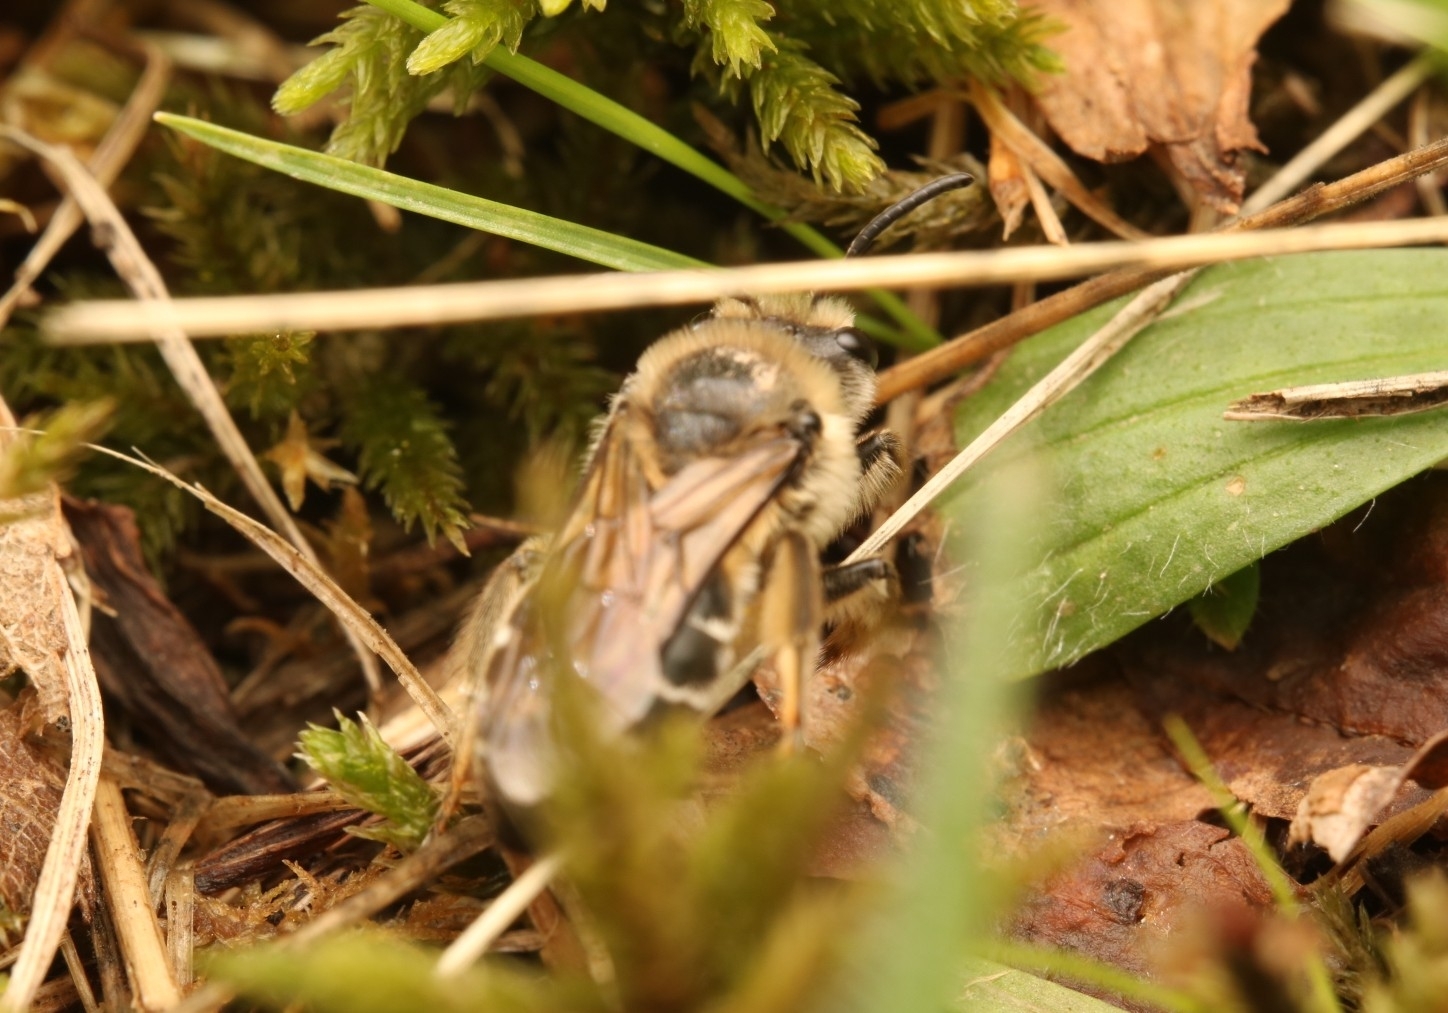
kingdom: Animalia
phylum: Arthropoda
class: Insecta
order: Hymenoptera
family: Colletidae
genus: Colletes
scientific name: Colletes inaequalis
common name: Unequal cellophane bee
